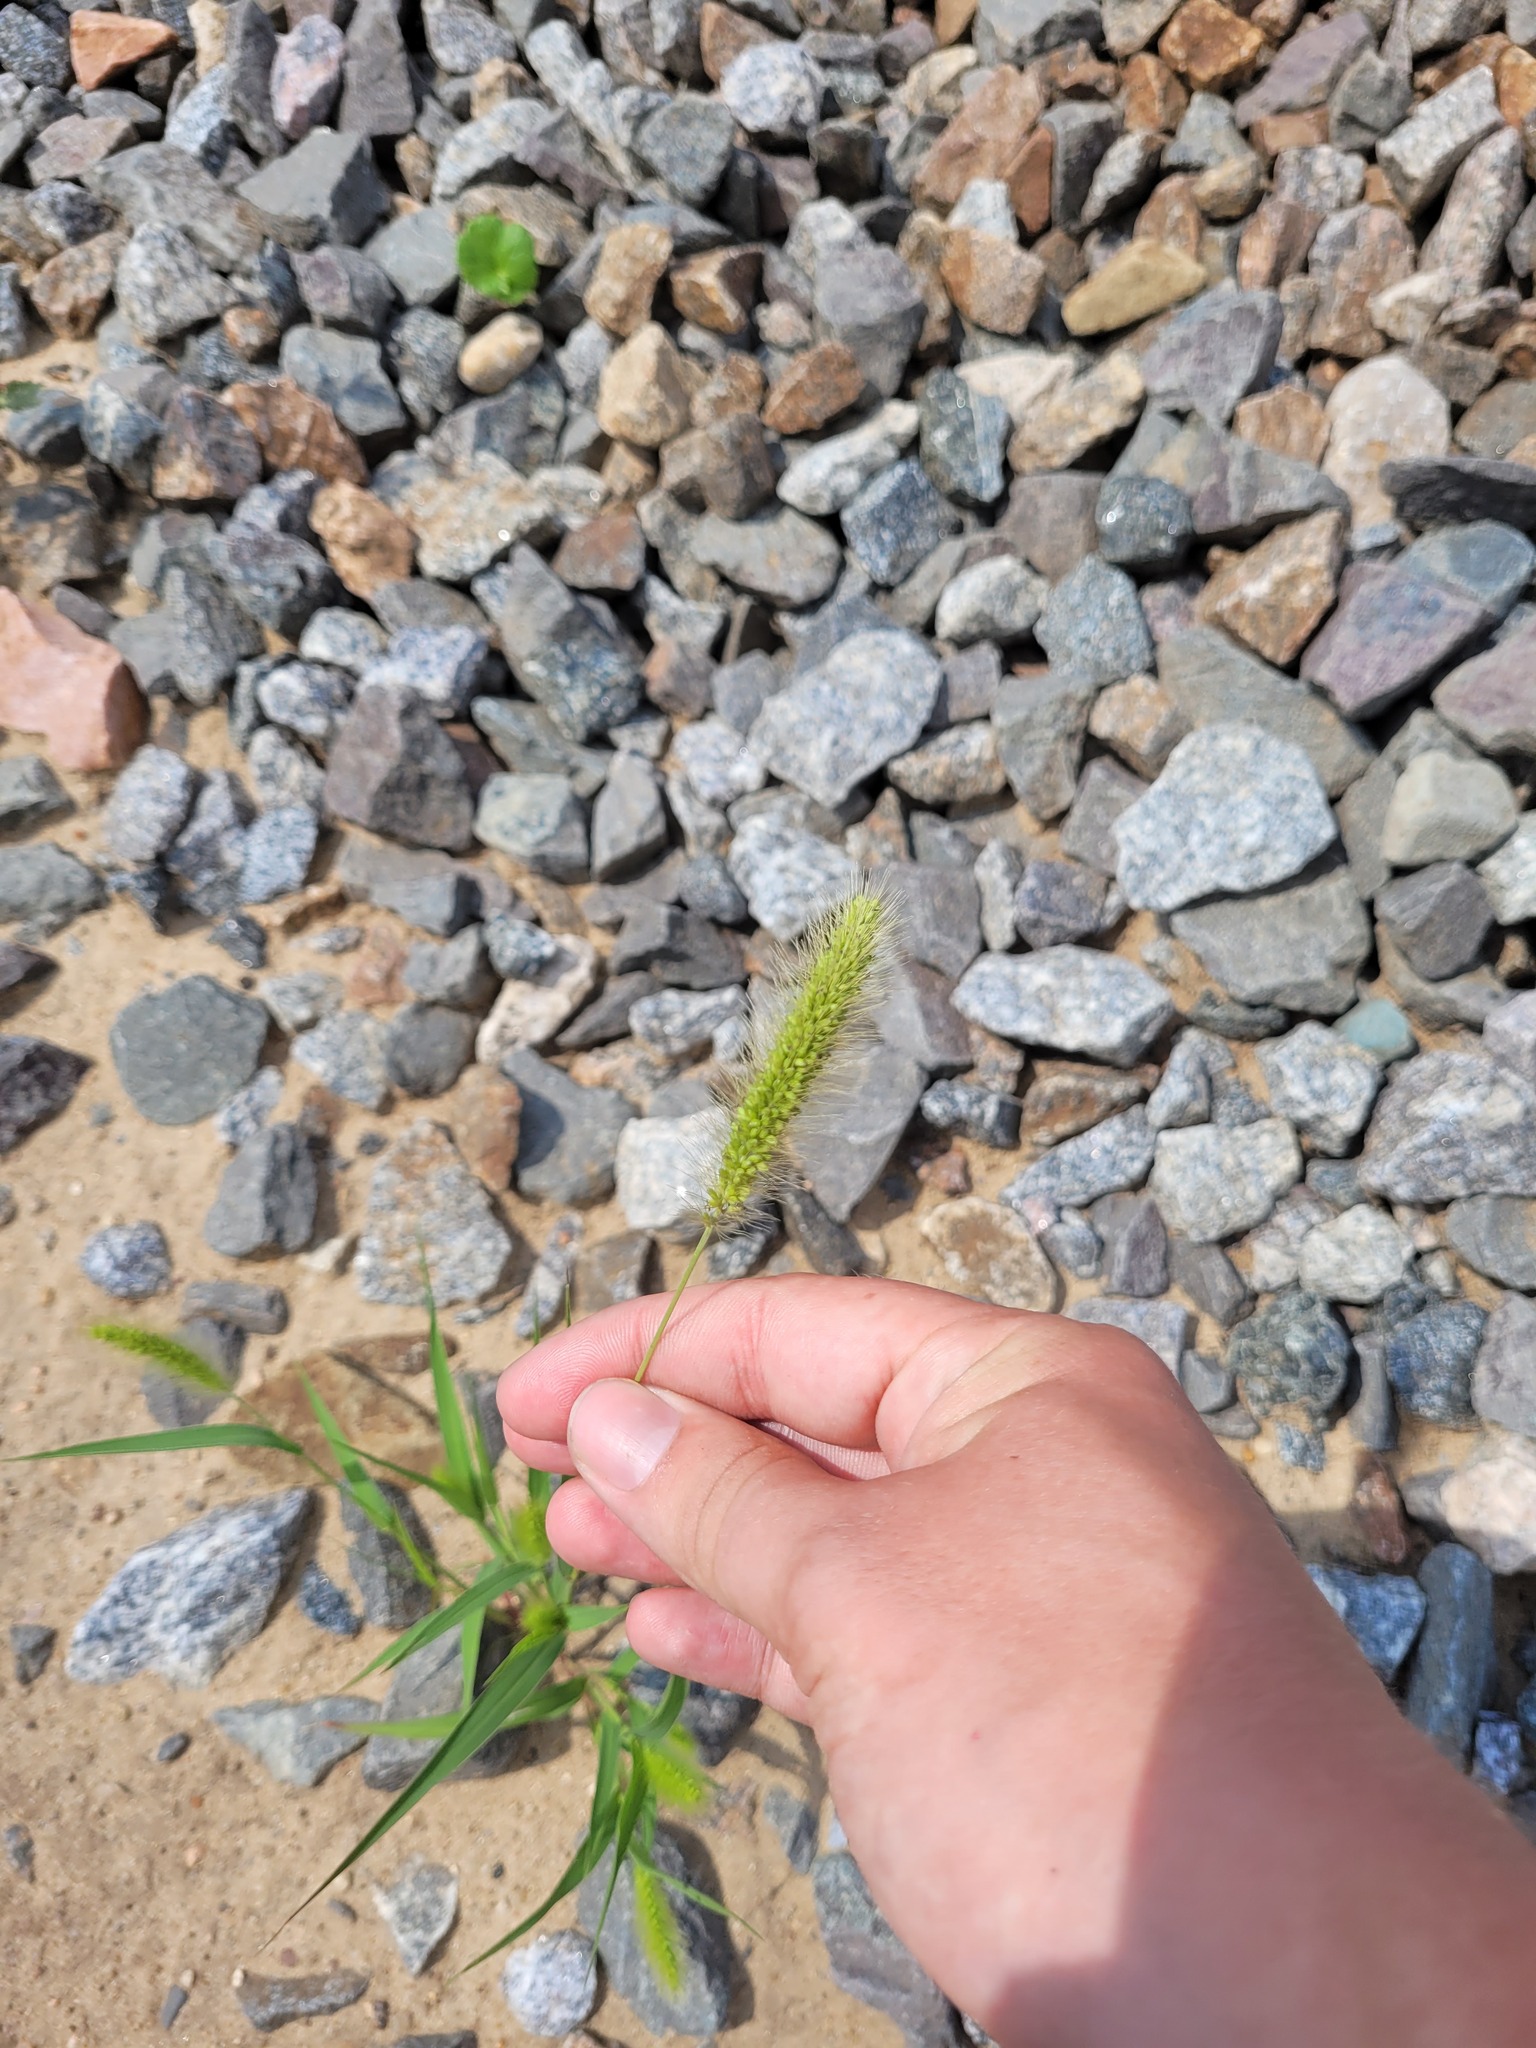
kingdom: Plantae
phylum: Tracheophyta
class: Liliopsida
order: Poales
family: Poaceae
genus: Setaria
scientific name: Setaria viridis
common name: Green bristlegrass
